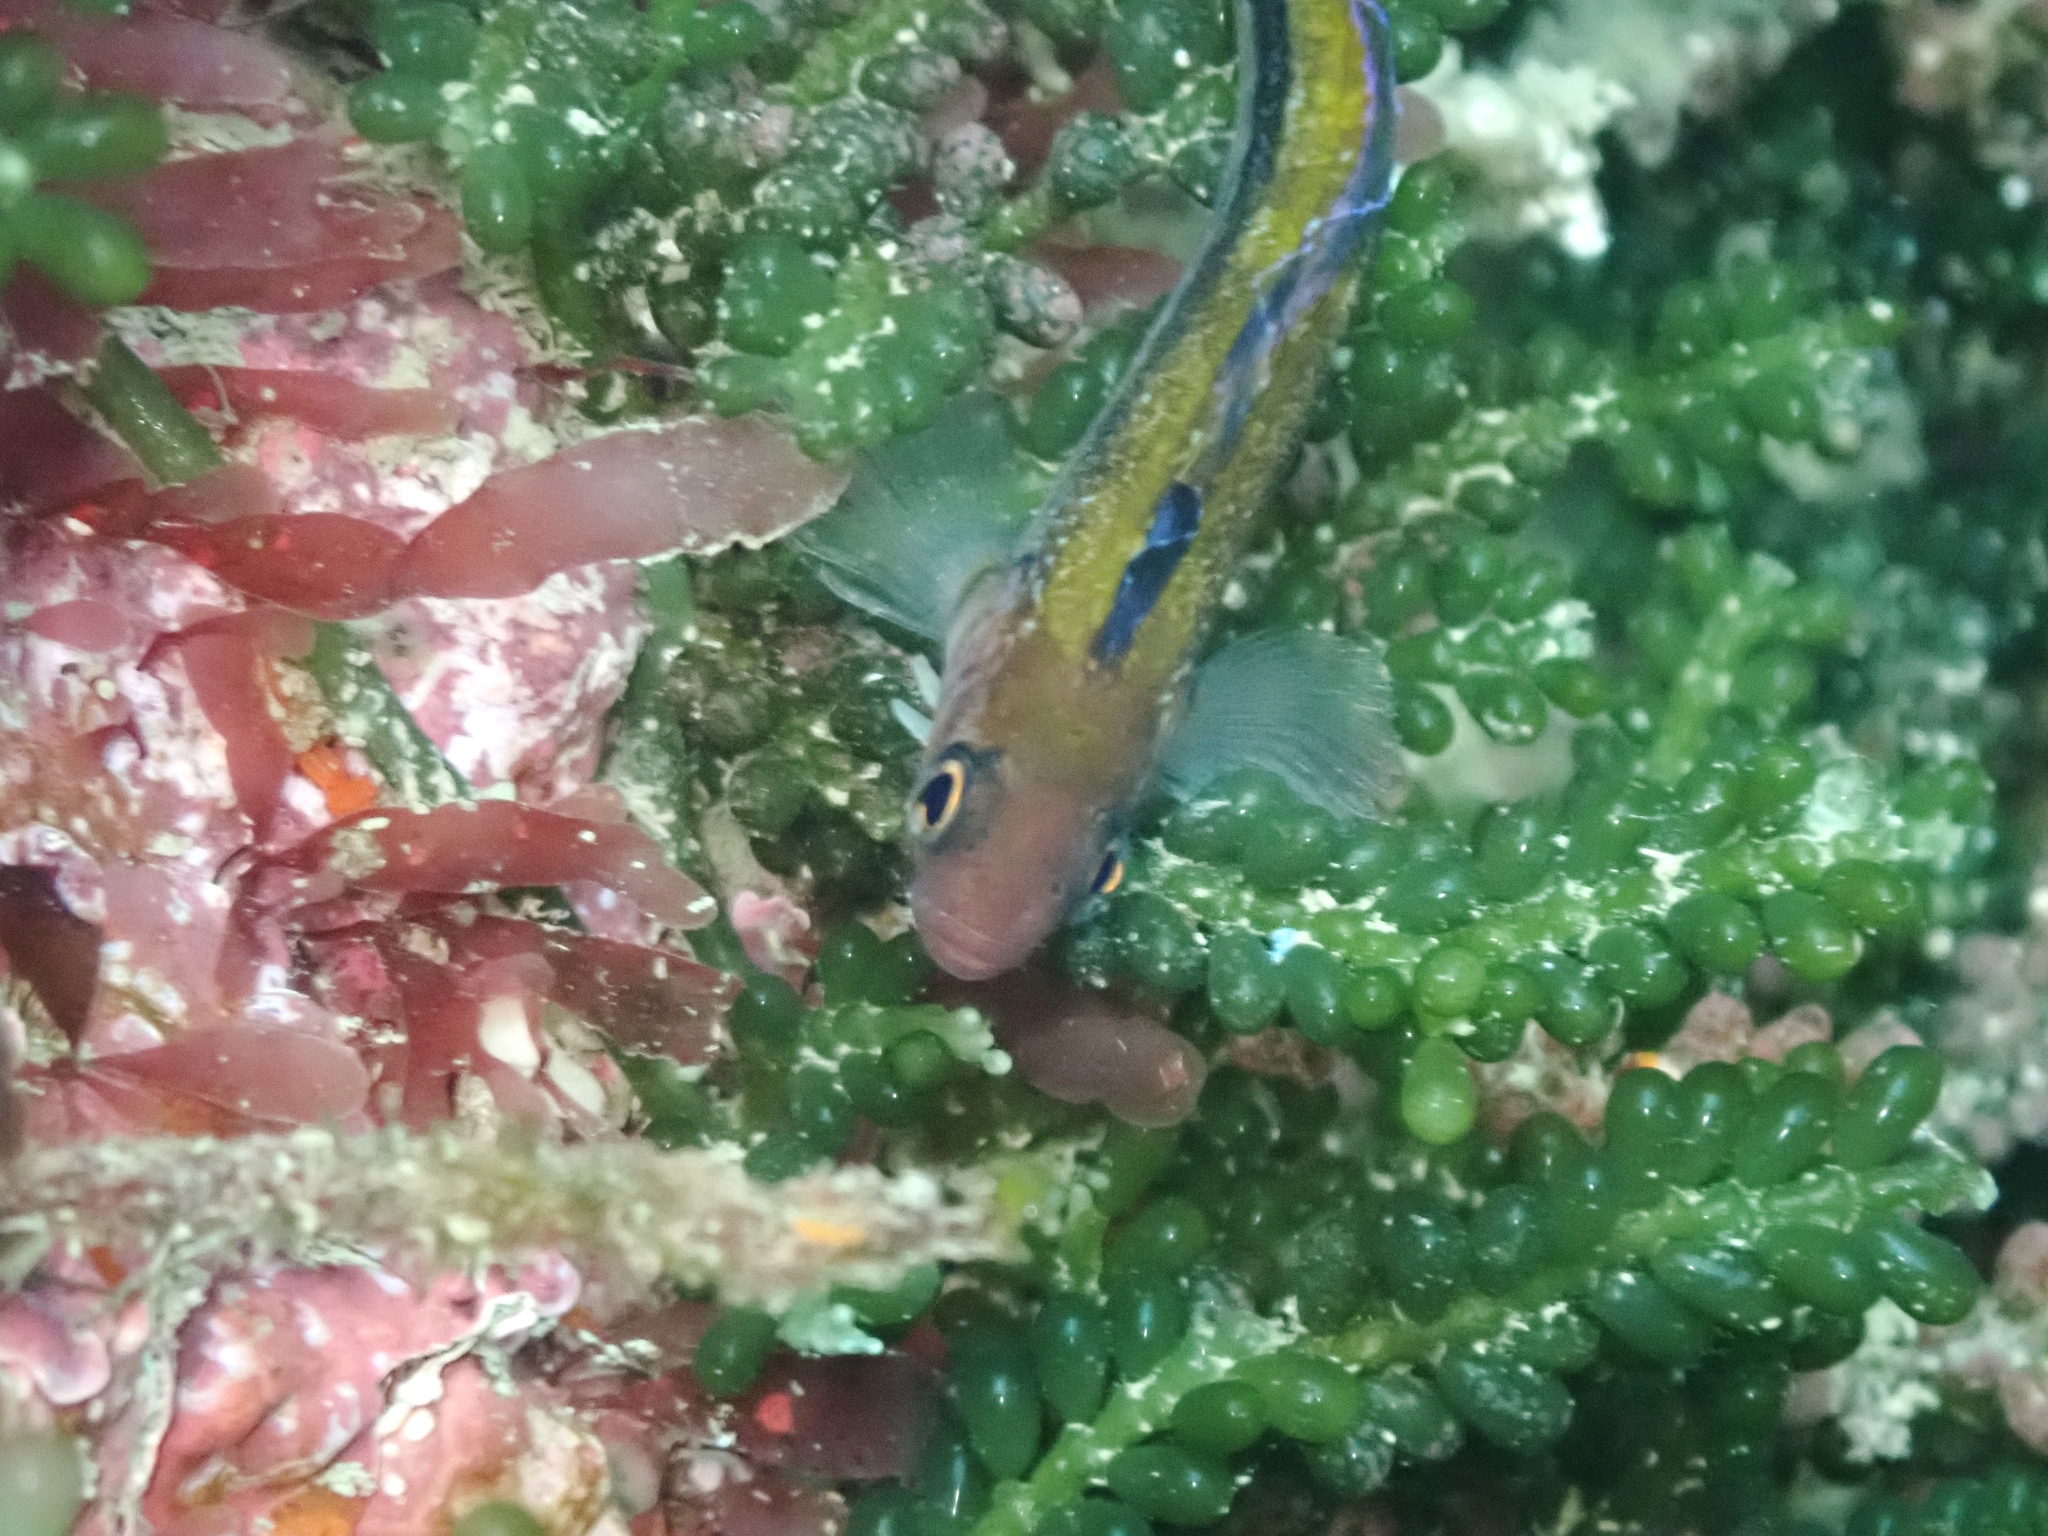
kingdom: Animalia
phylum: Chordata
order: Perciformes
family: Tripterygiidae
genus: Forsterygion
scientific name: Forsterygion maryannae
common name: Oblique-swimming triplefin
